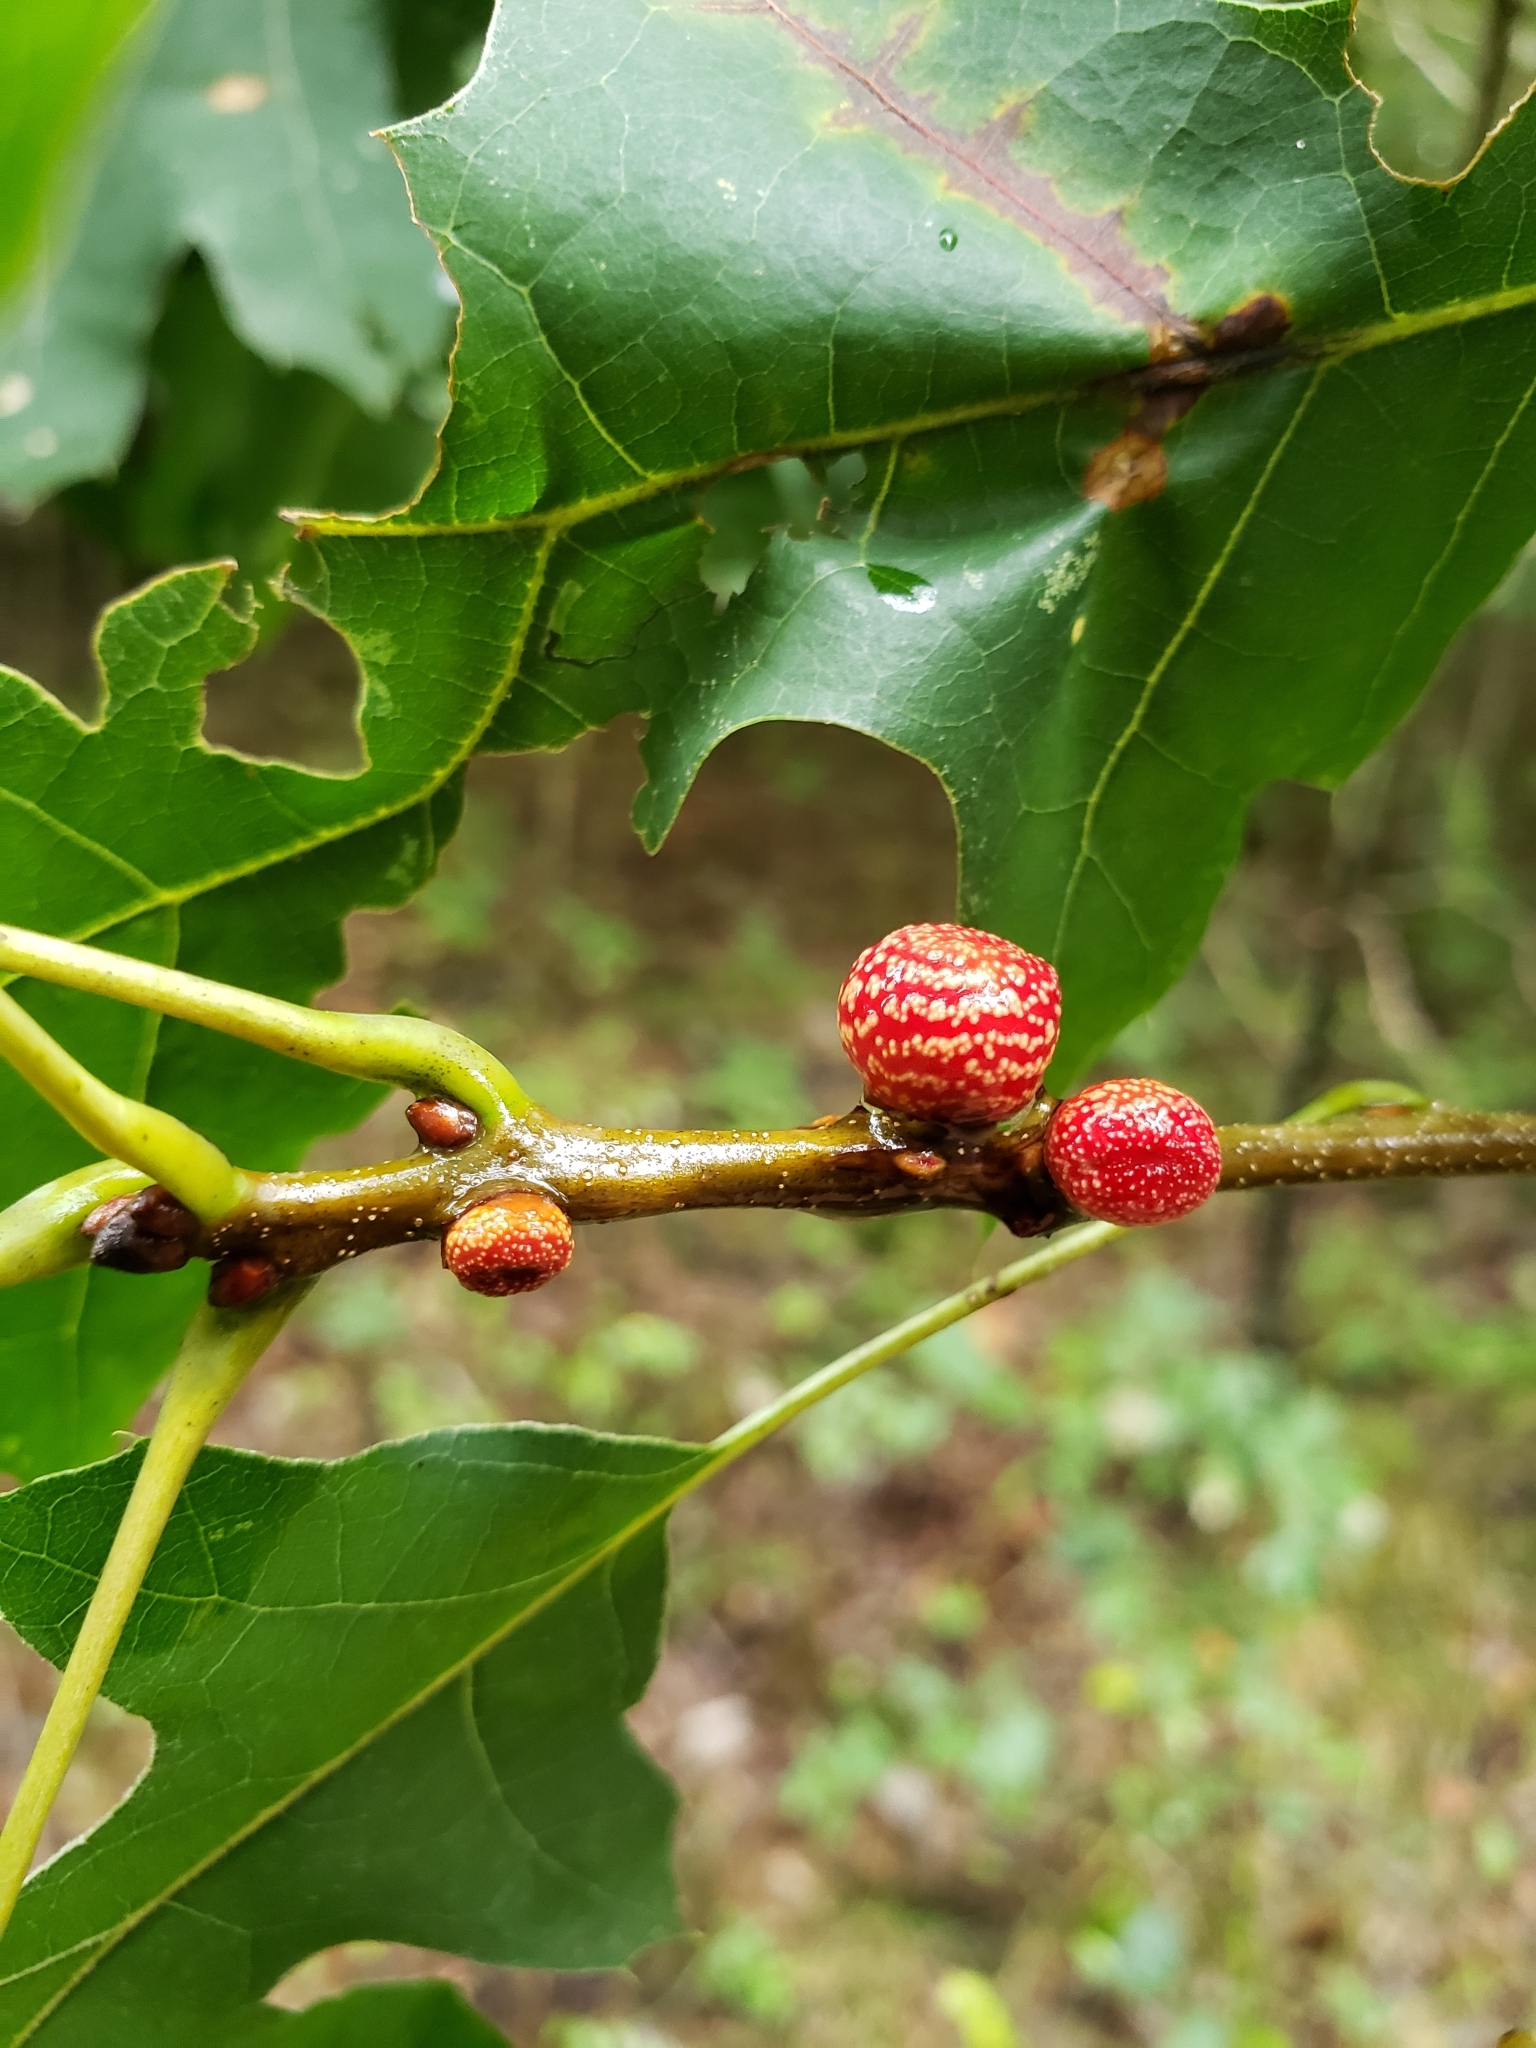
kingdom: Animalia
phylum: Arthropoda
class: Insecta
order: Hymenoptera
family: Cynipidae
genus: Kokkocynips
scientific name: Kokkocynips imbricariae
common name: Banded bullet gall wasp
